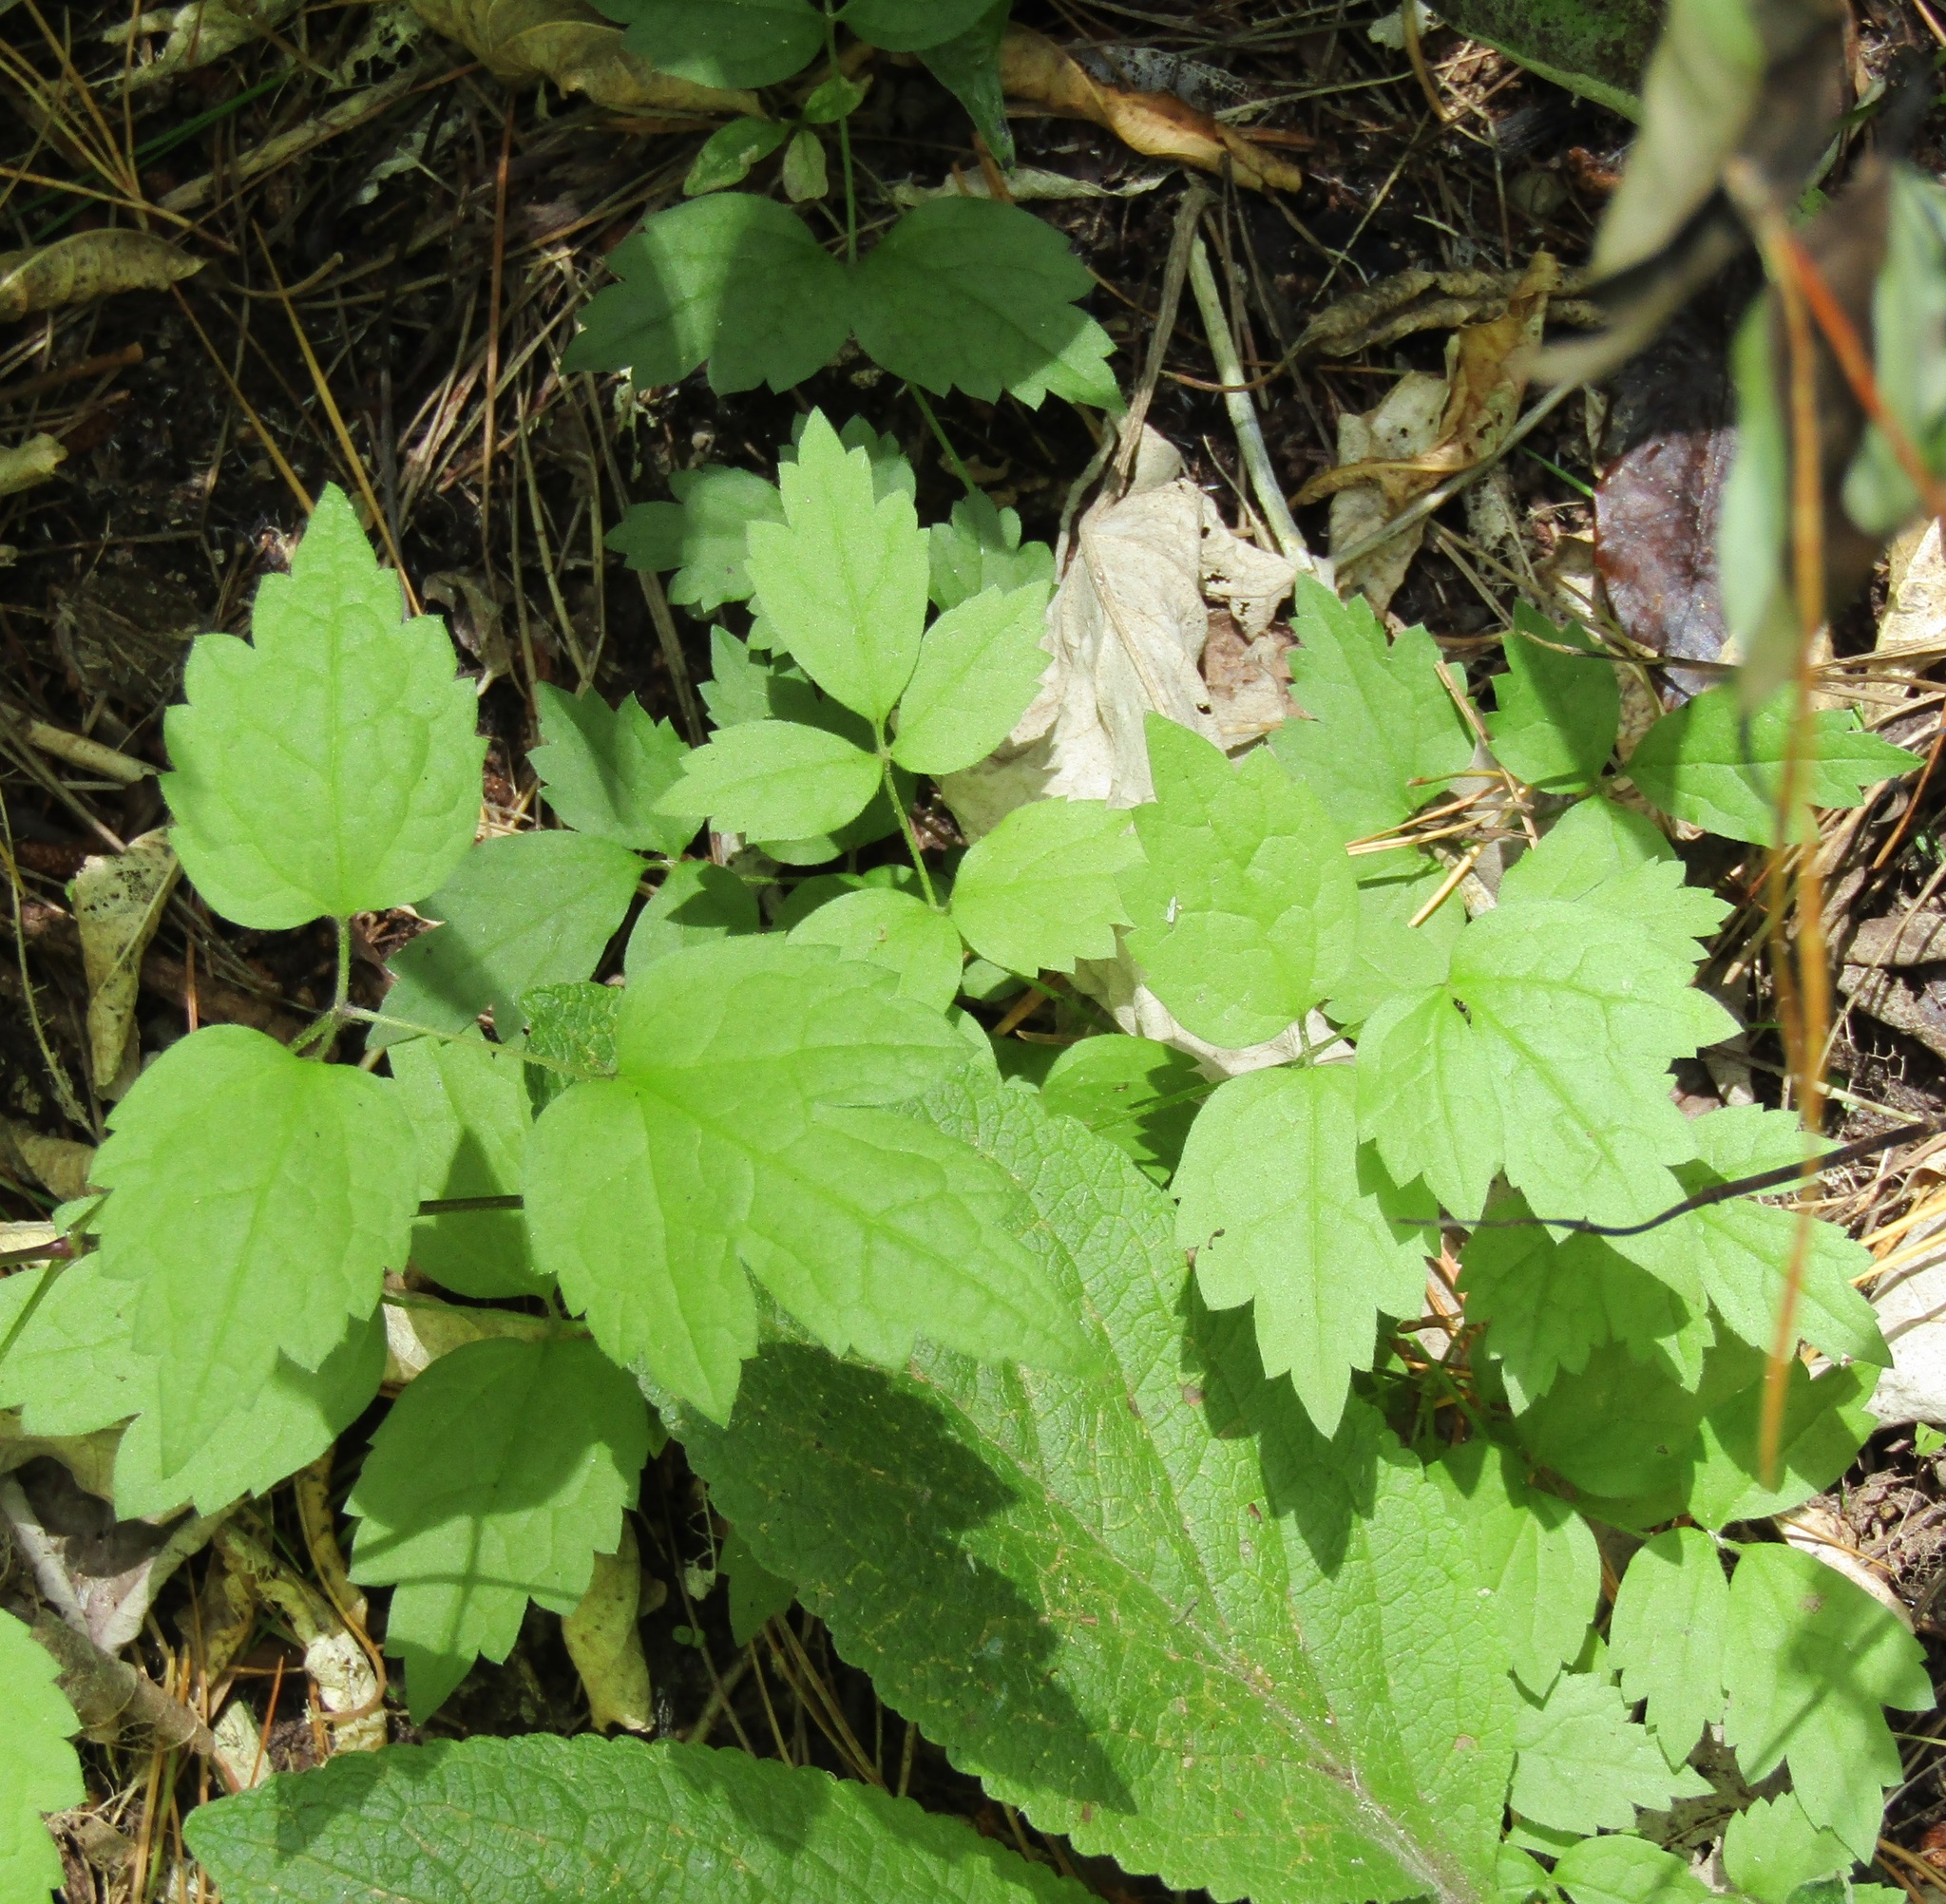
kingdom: Plantae
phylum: Tracheophyta
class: Magnoliopsida
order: Ranunculales
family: Ranunculaceae
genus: Clematis
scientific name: Clematis vitalba
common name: Evergreen clematis
